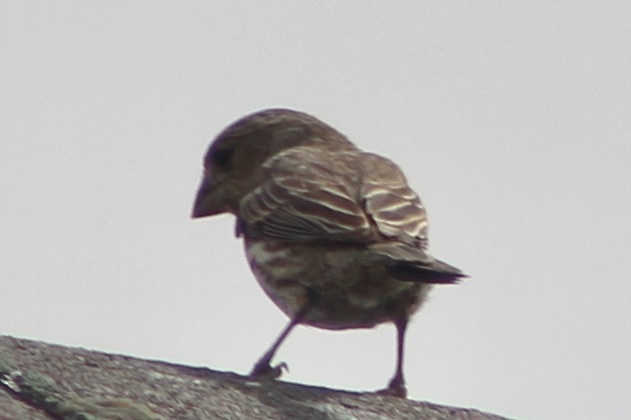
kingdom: Animalia
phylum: Chordata
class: Aves
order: Passeriformes
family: Fringillidae
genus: Haemorhous
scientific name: Haemorhous mexicanus
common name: House finch
